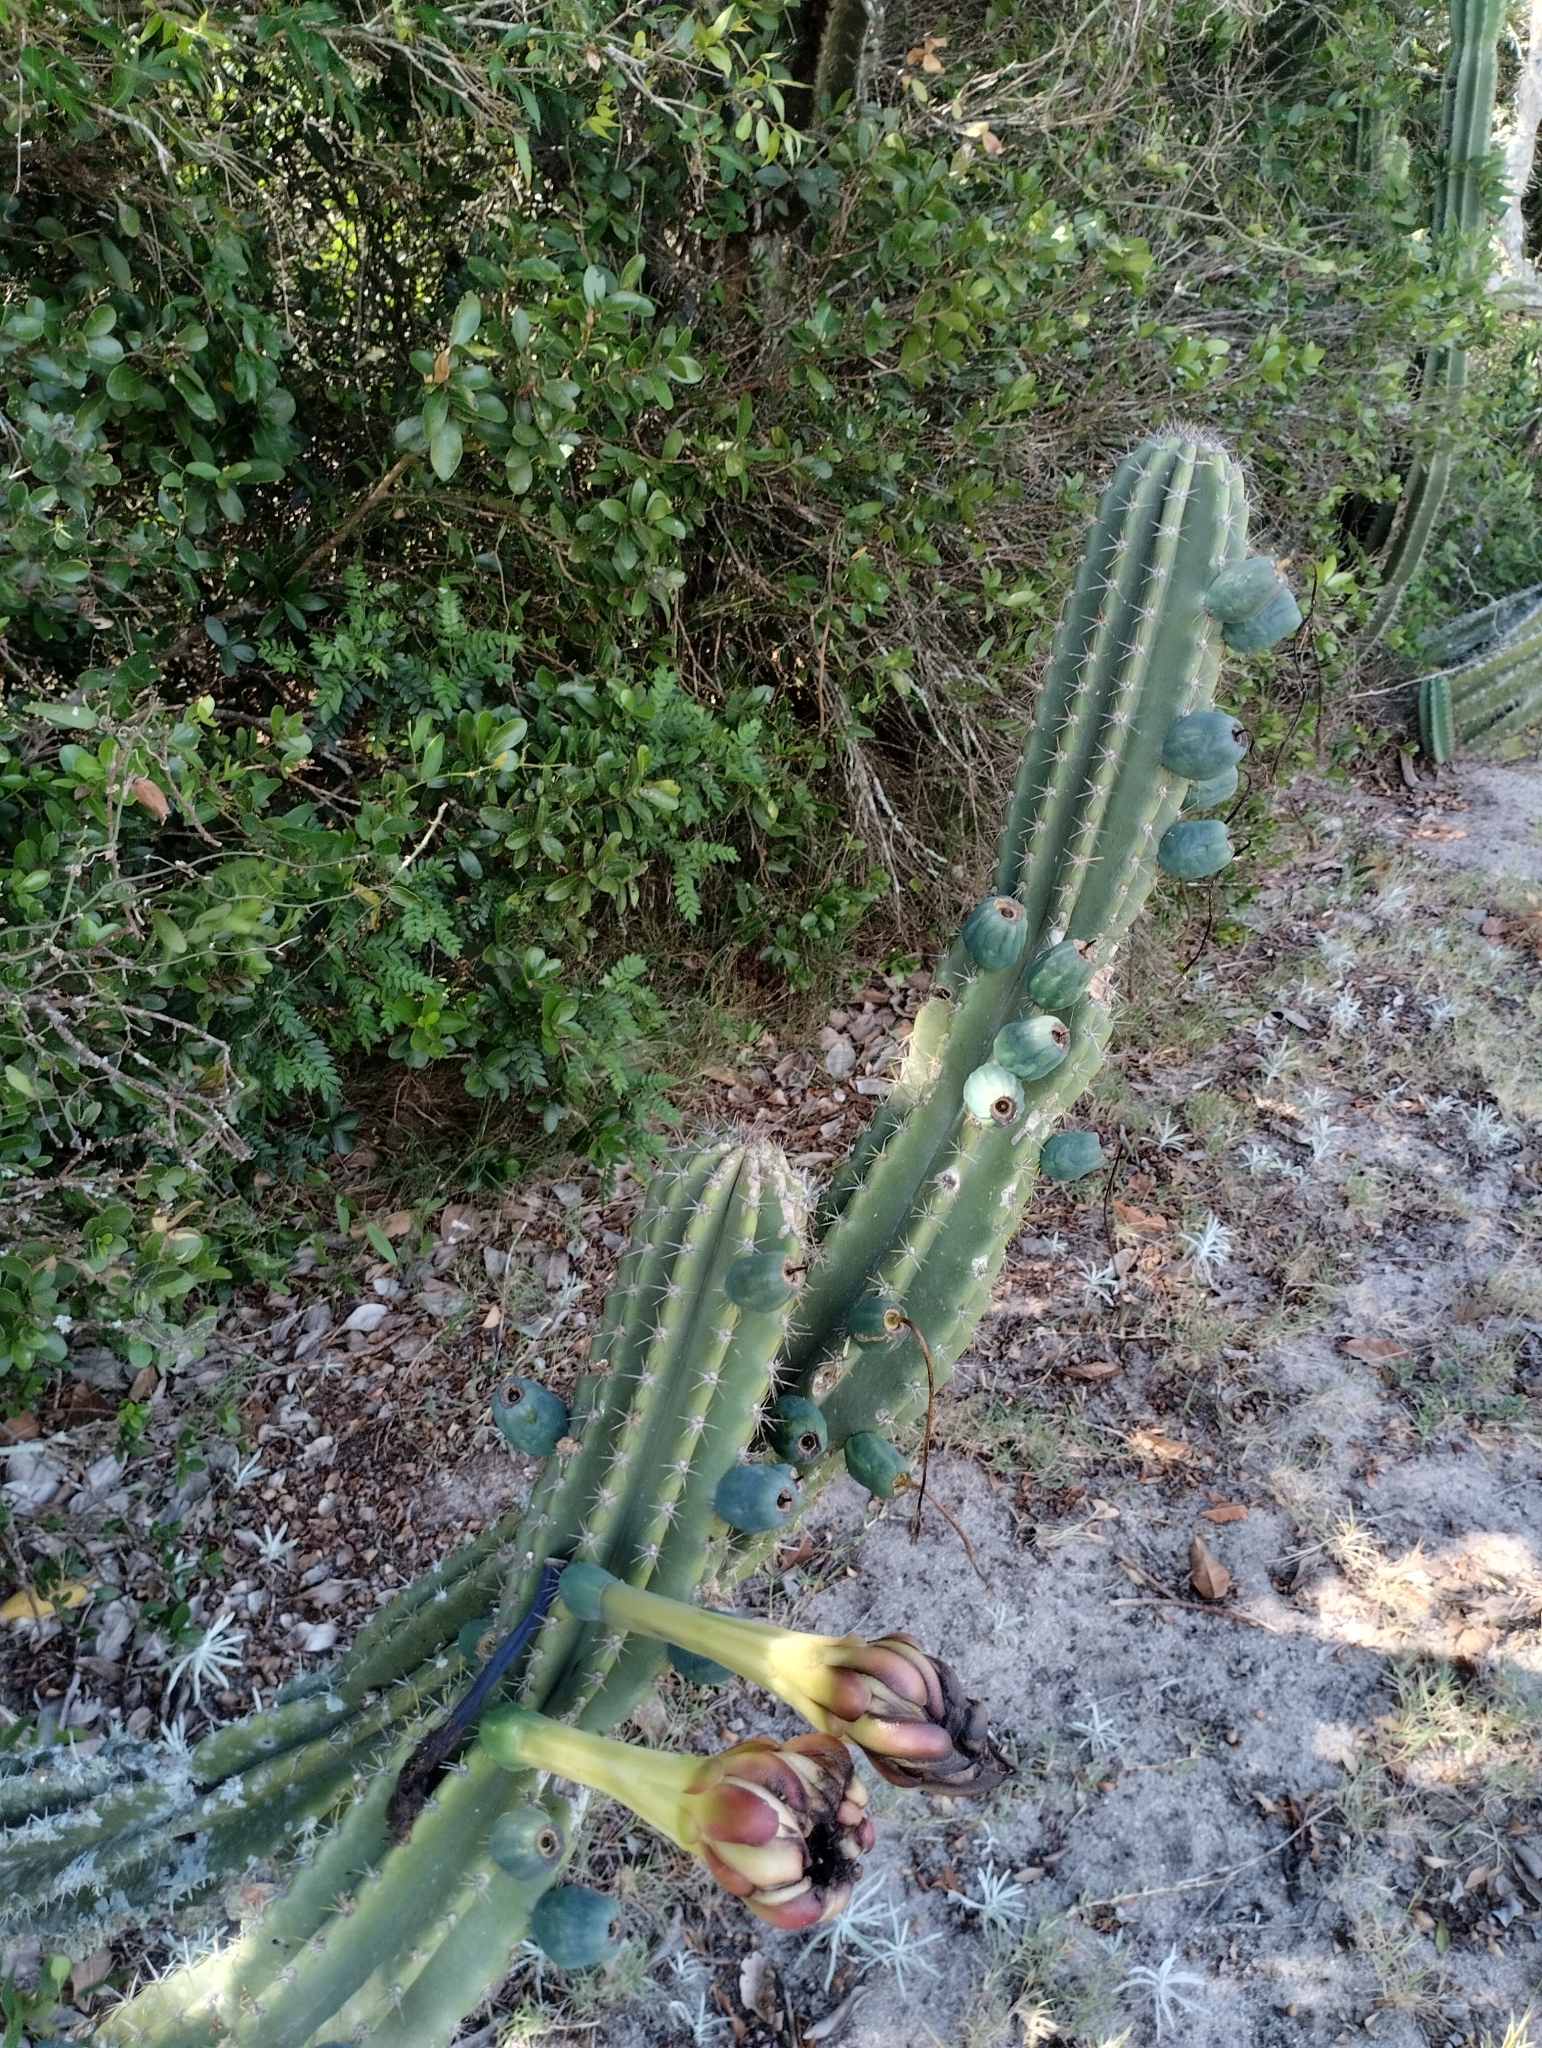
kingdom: Plantae
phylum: Tracheophyta
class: Magnoliopsida
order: Caryophyllales
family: Cactaceae
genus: Cereus
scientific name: Cereus hildmannianus
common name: Hedge cactus
